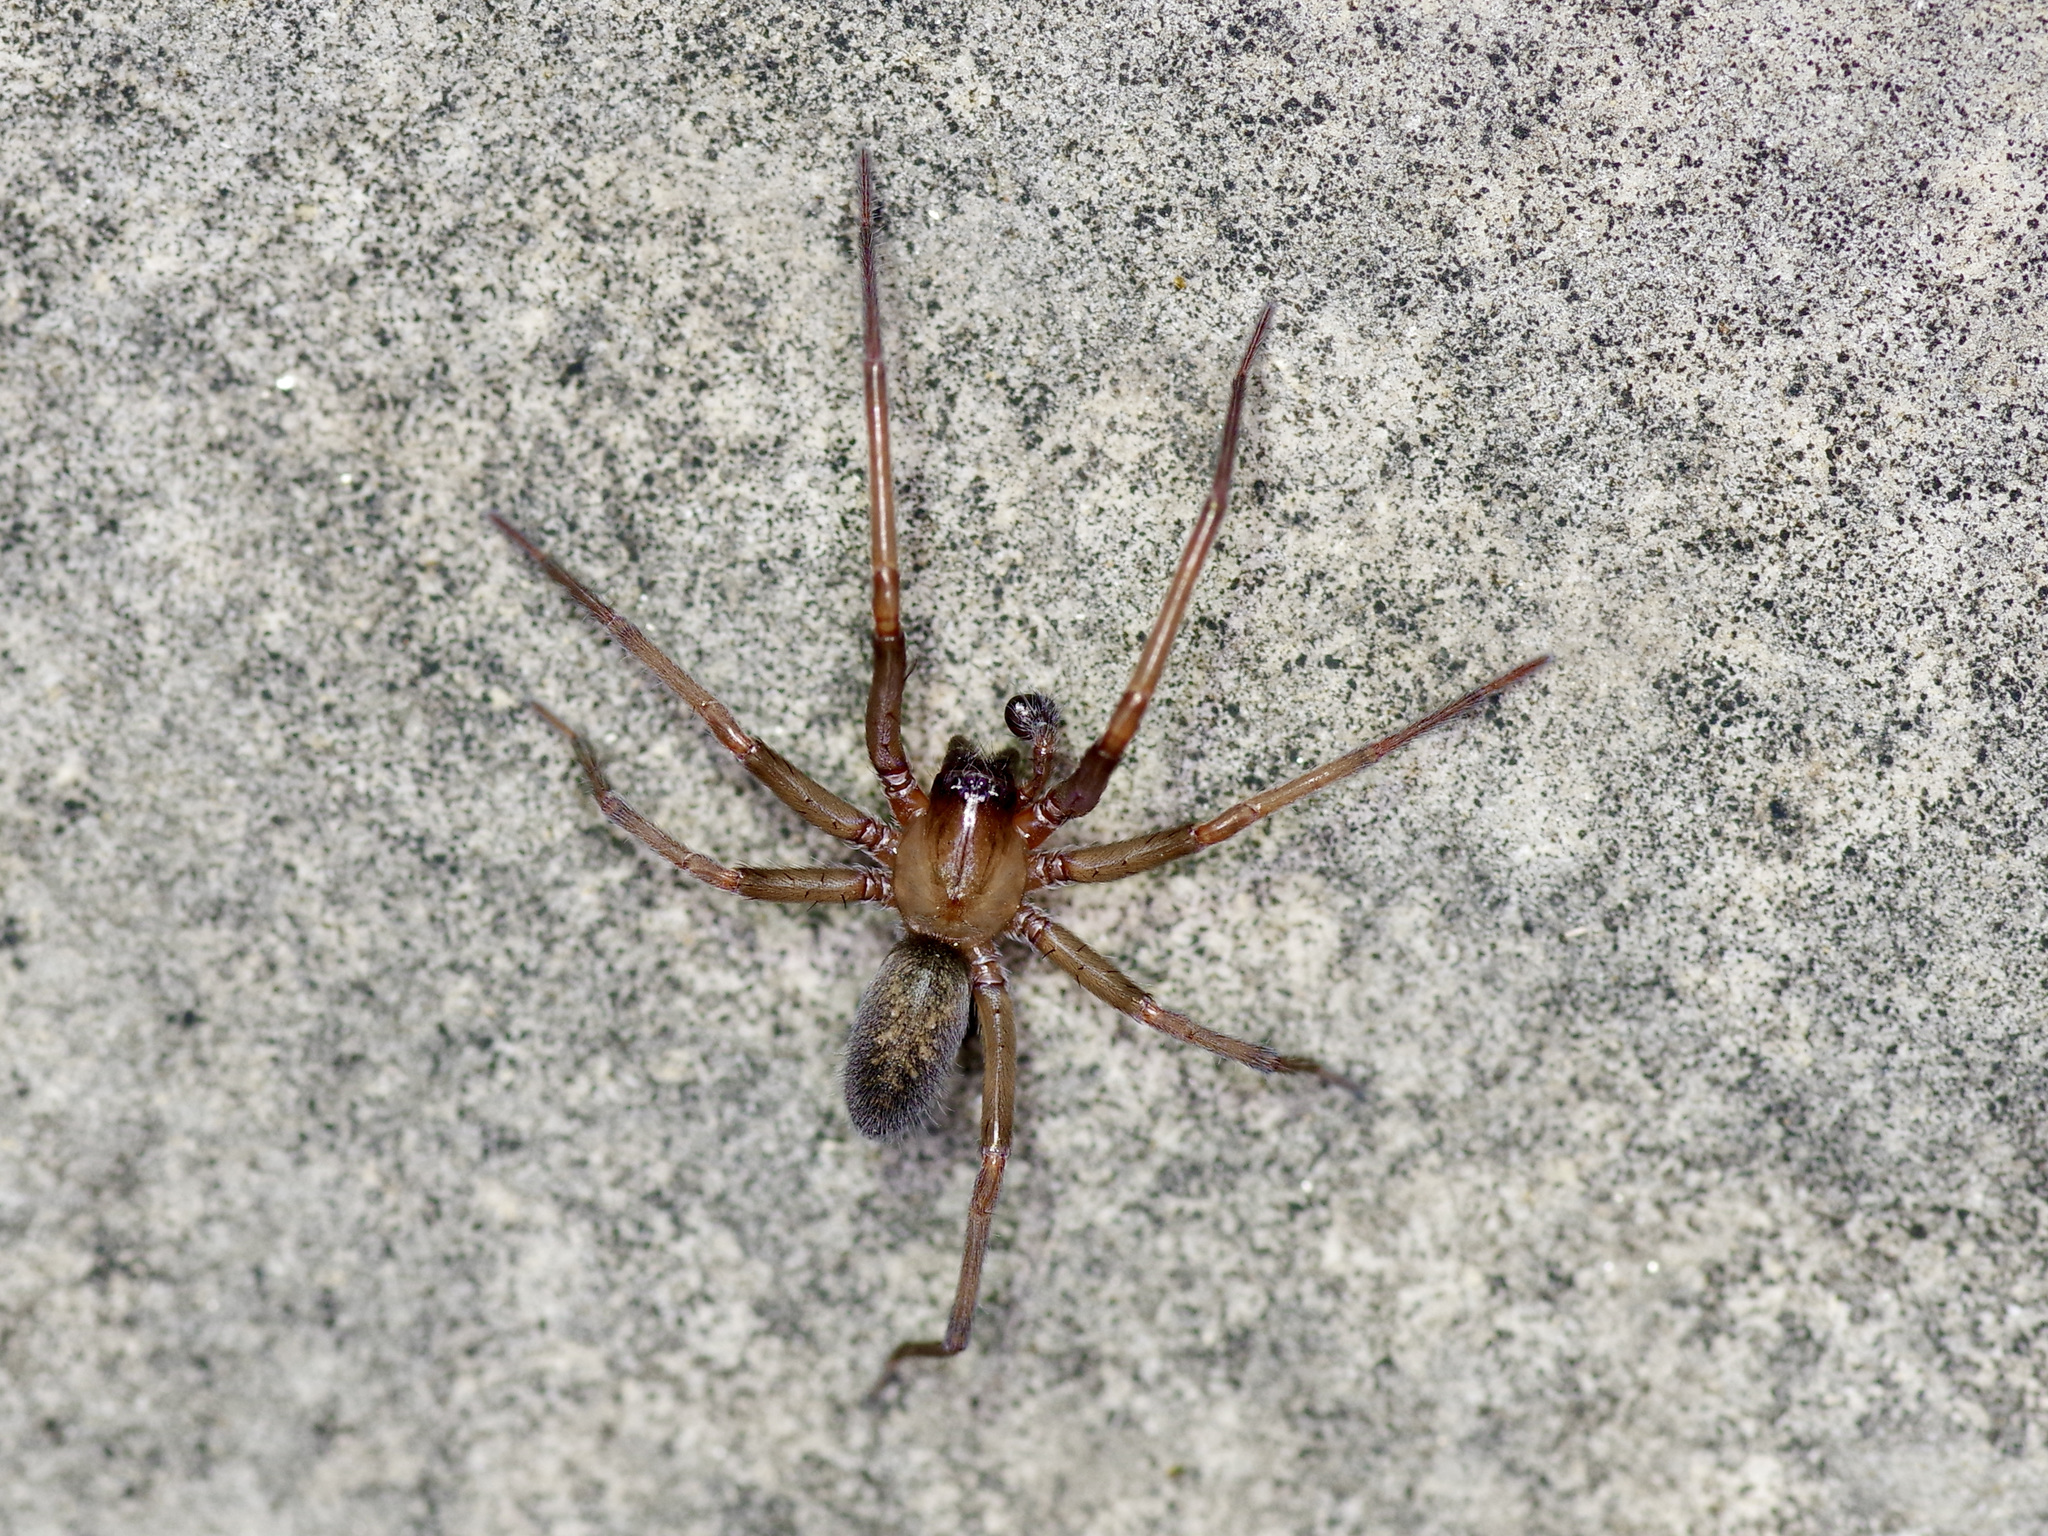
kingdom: Animalia
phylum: Arthropoda
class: Arachnida
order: Araneae
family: Desidae
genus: Metaltella
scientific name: Metaltella simoni
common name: Cribellate spider
